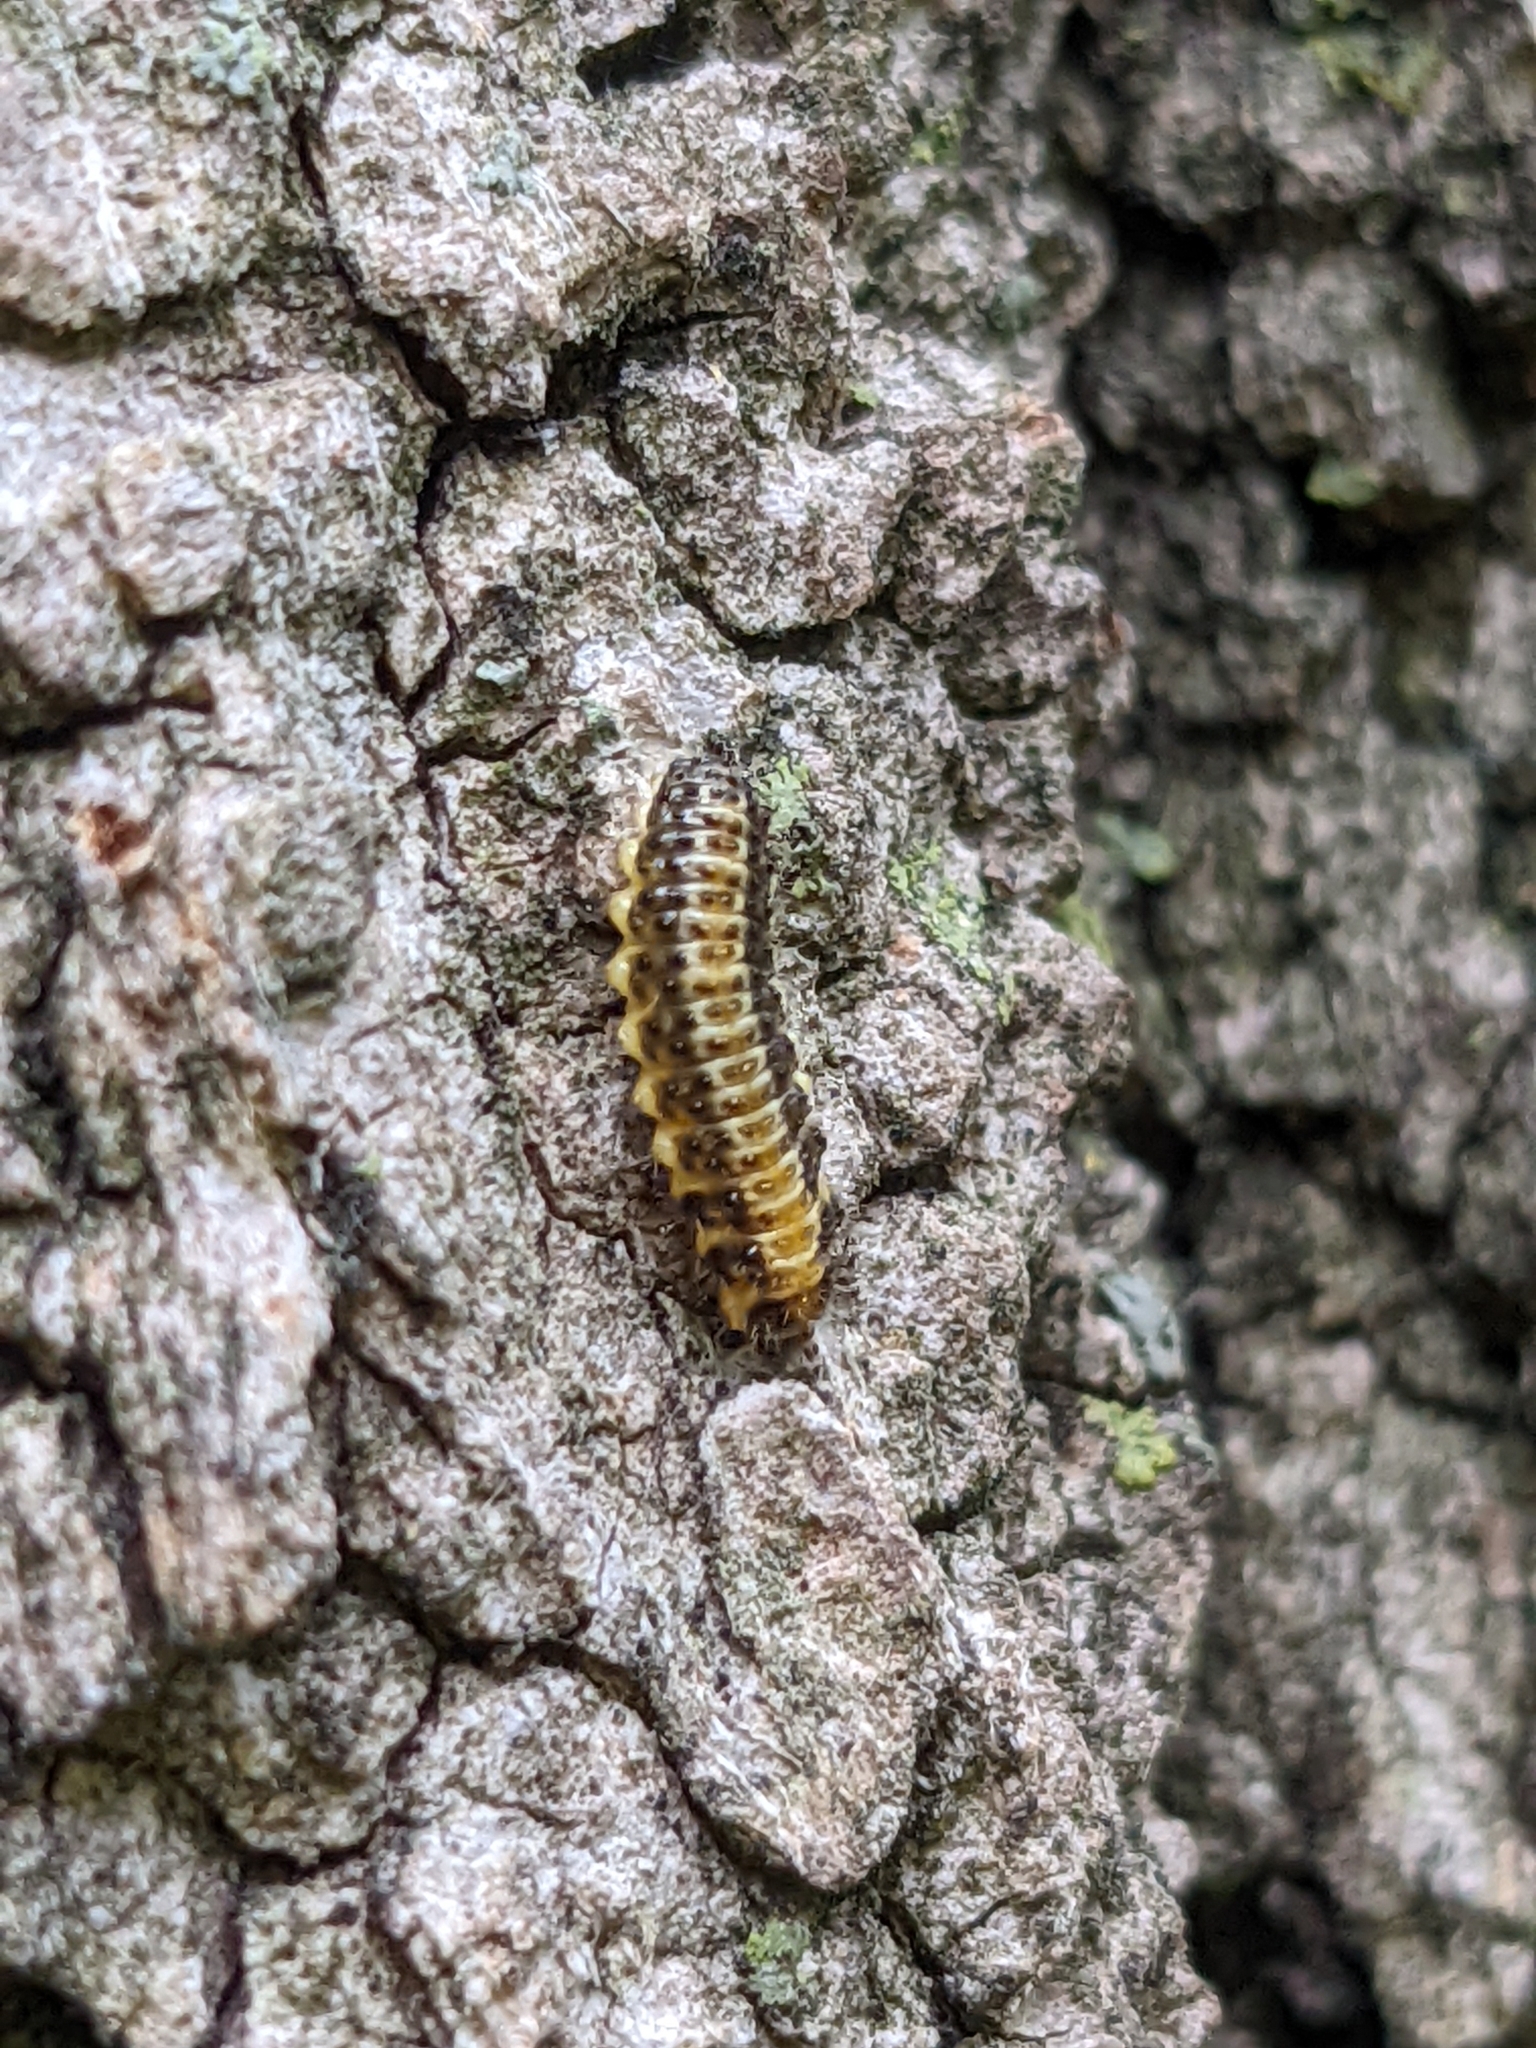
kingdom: Animalia
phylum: Arthropoda
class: Insecta
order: Coleoptera
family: Chrysomelidae
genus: Xanthogaleruca
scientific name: Xanthogaleruca luteola
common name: Elm leaf beetle
